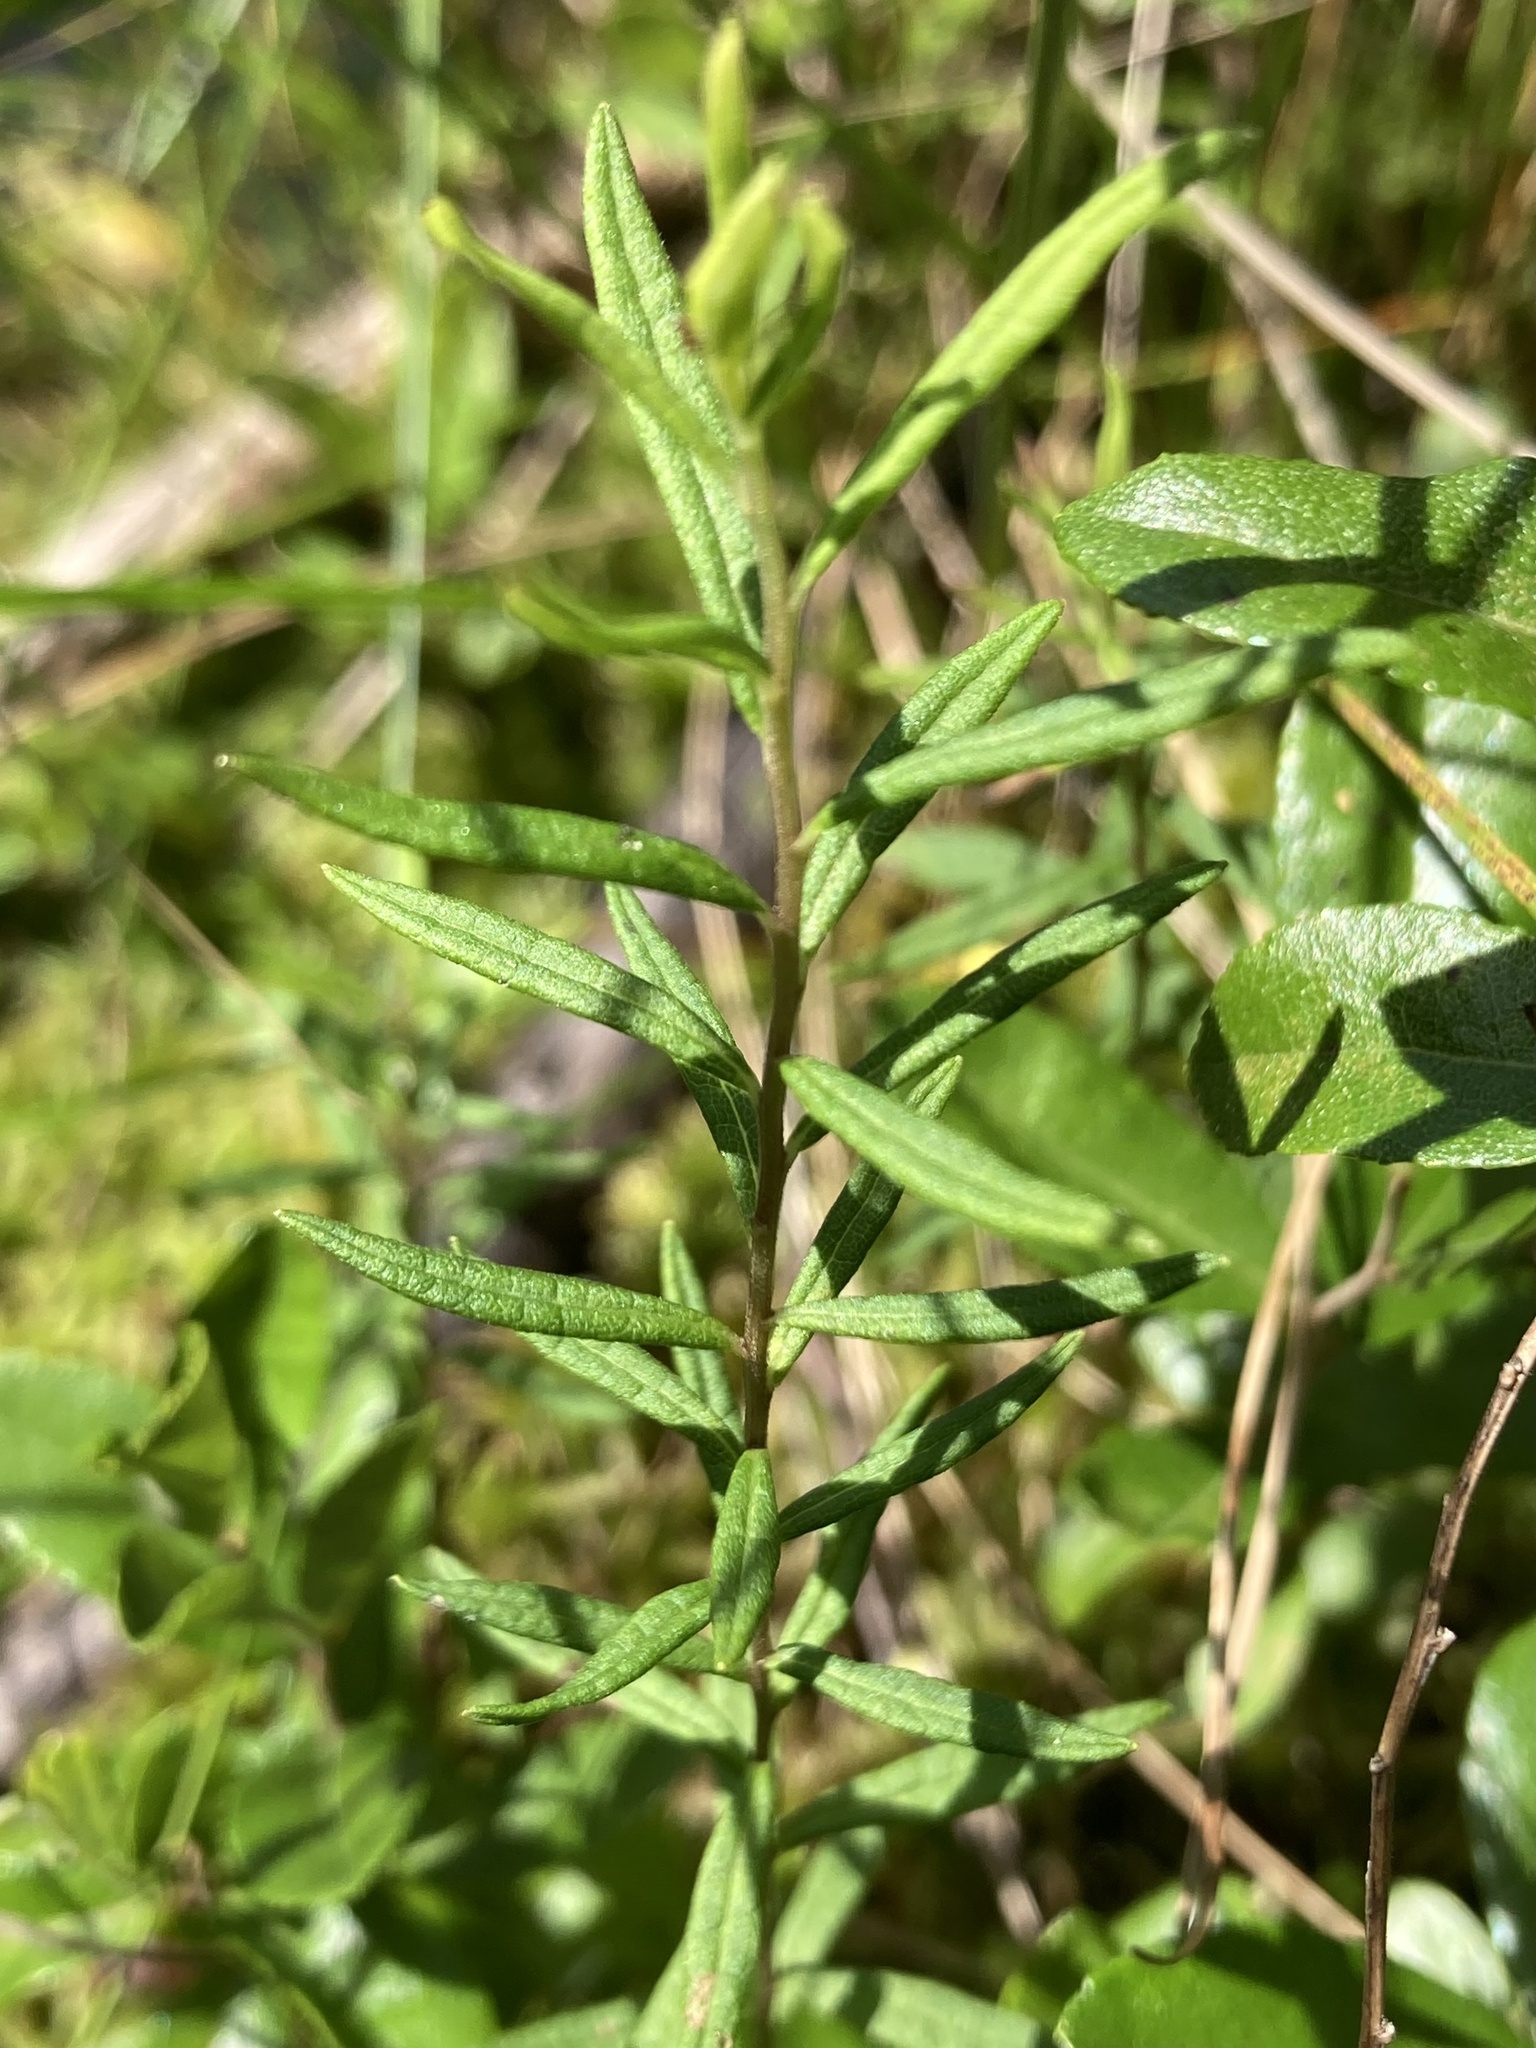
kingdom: Plantae
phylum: Tracheophyta
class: Magnoliopsida
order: Asterales
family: Asteraceae
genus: Oclemena
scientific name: Oclemena nemoralis
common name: Bog aster
